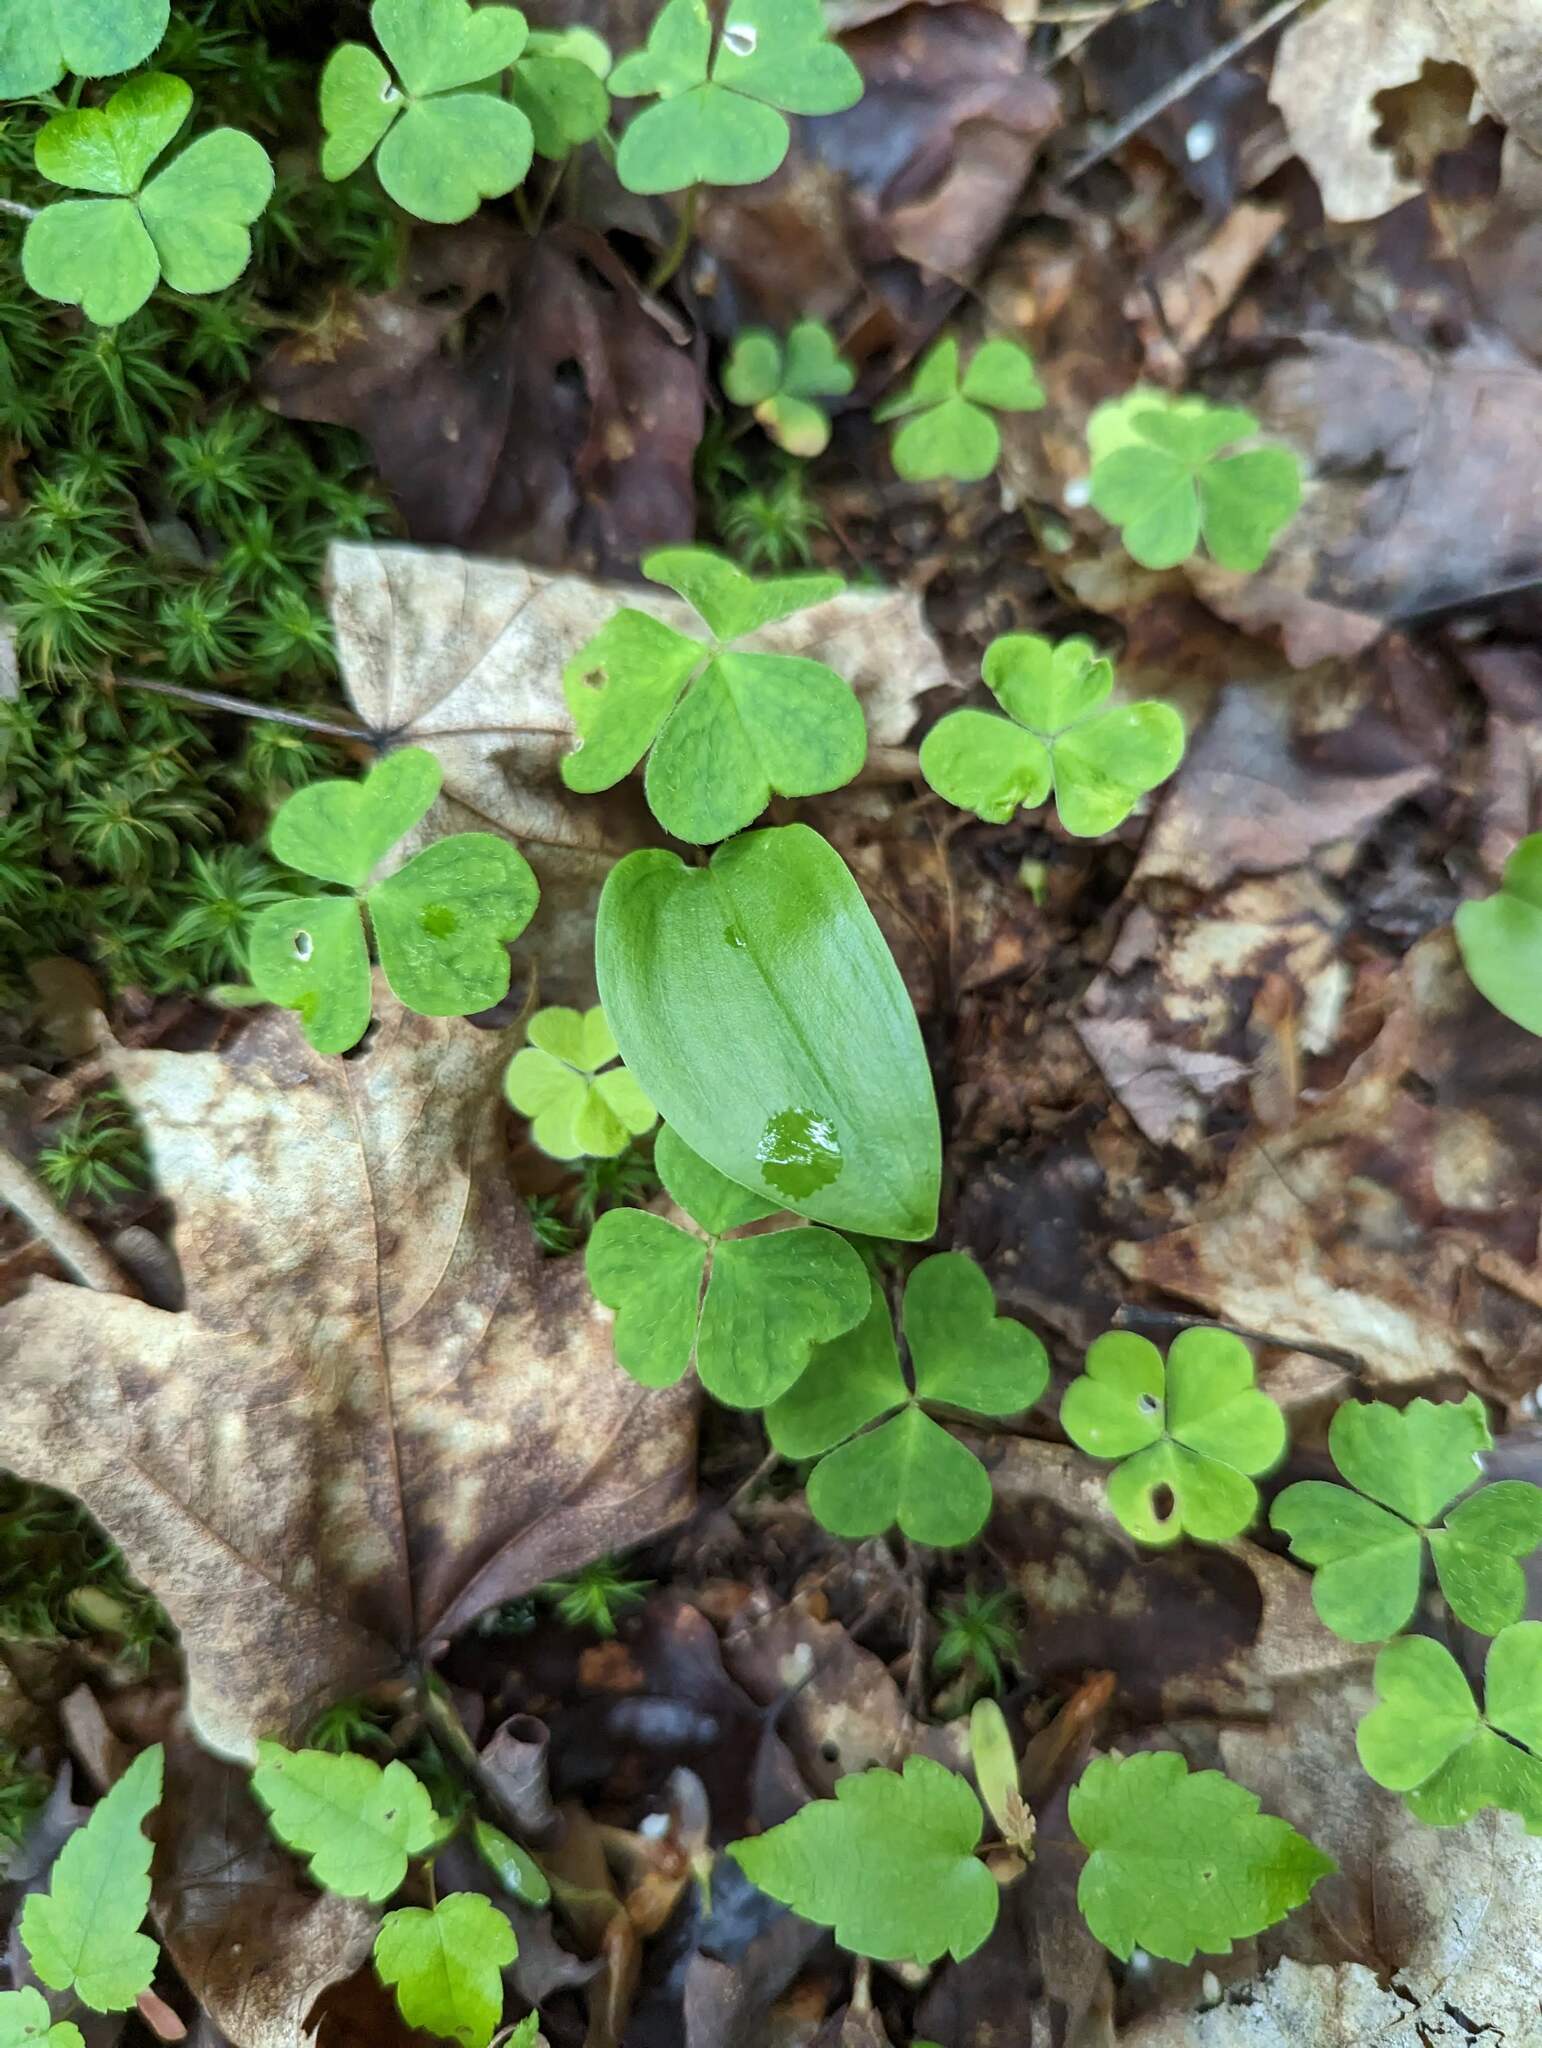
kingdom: Plantae
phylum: Tracheophyta
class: Liliopsida
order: Asparagales
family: Asparagaceae
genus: Maianthemum
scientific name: Maianthemum canadense
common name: False lily-of-the-valley
